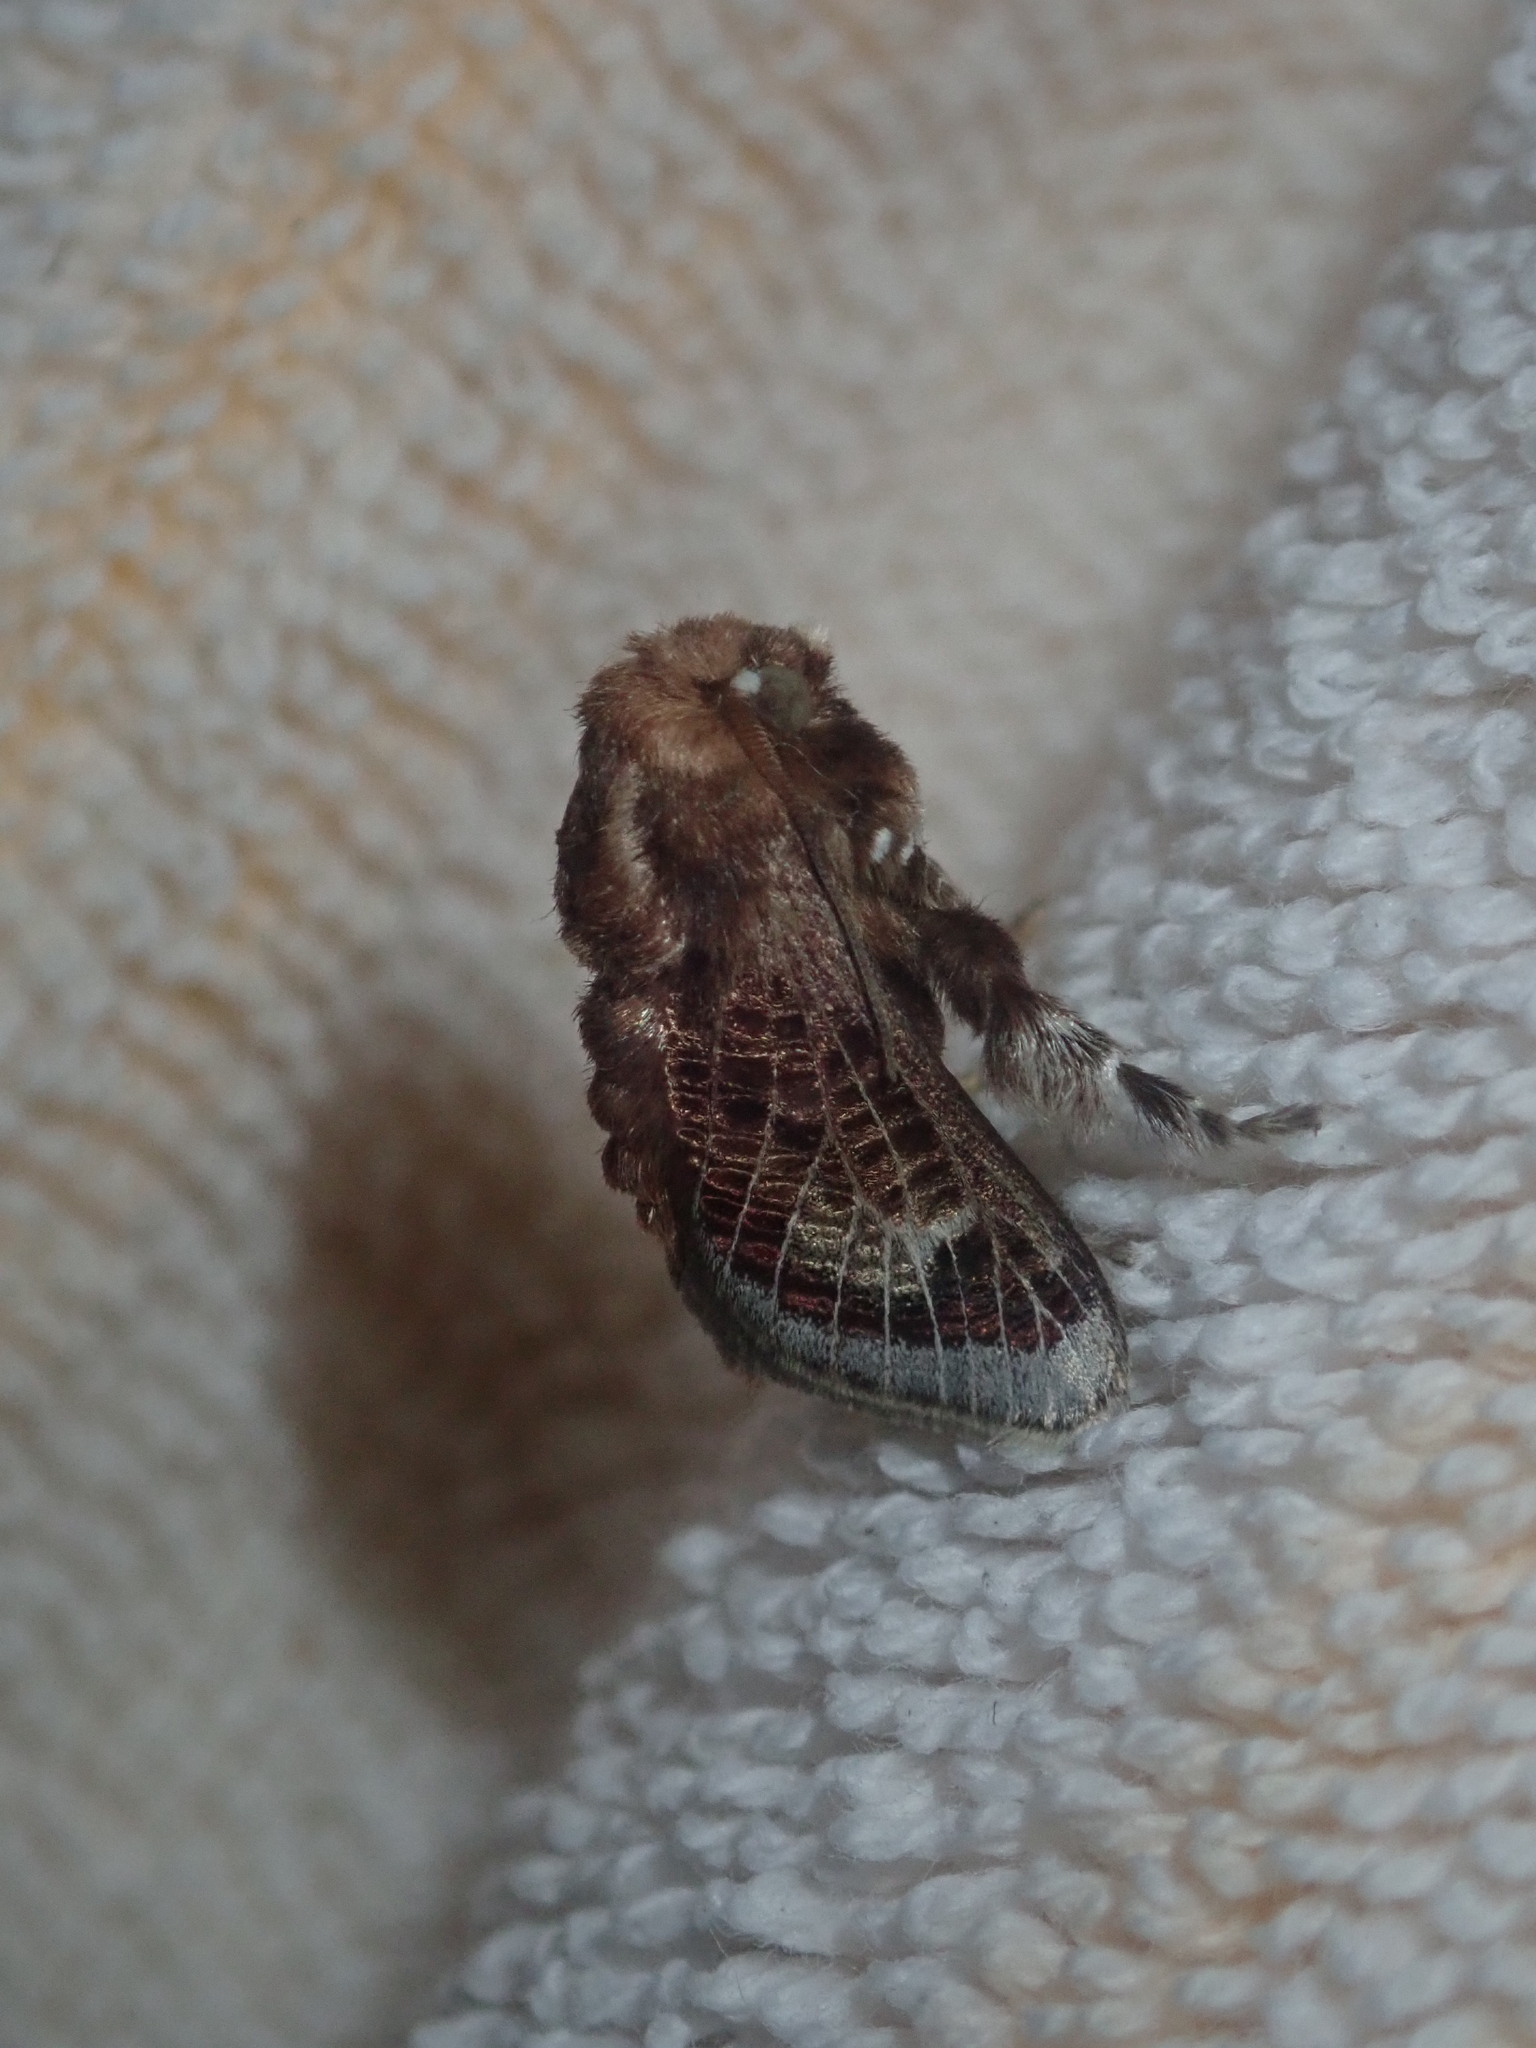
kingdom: Animalia
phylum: Arthropoda
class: Insecta
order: Lepidoptera
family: Limacodidae
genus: Doratifera
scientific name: Doratifera vulnerans
